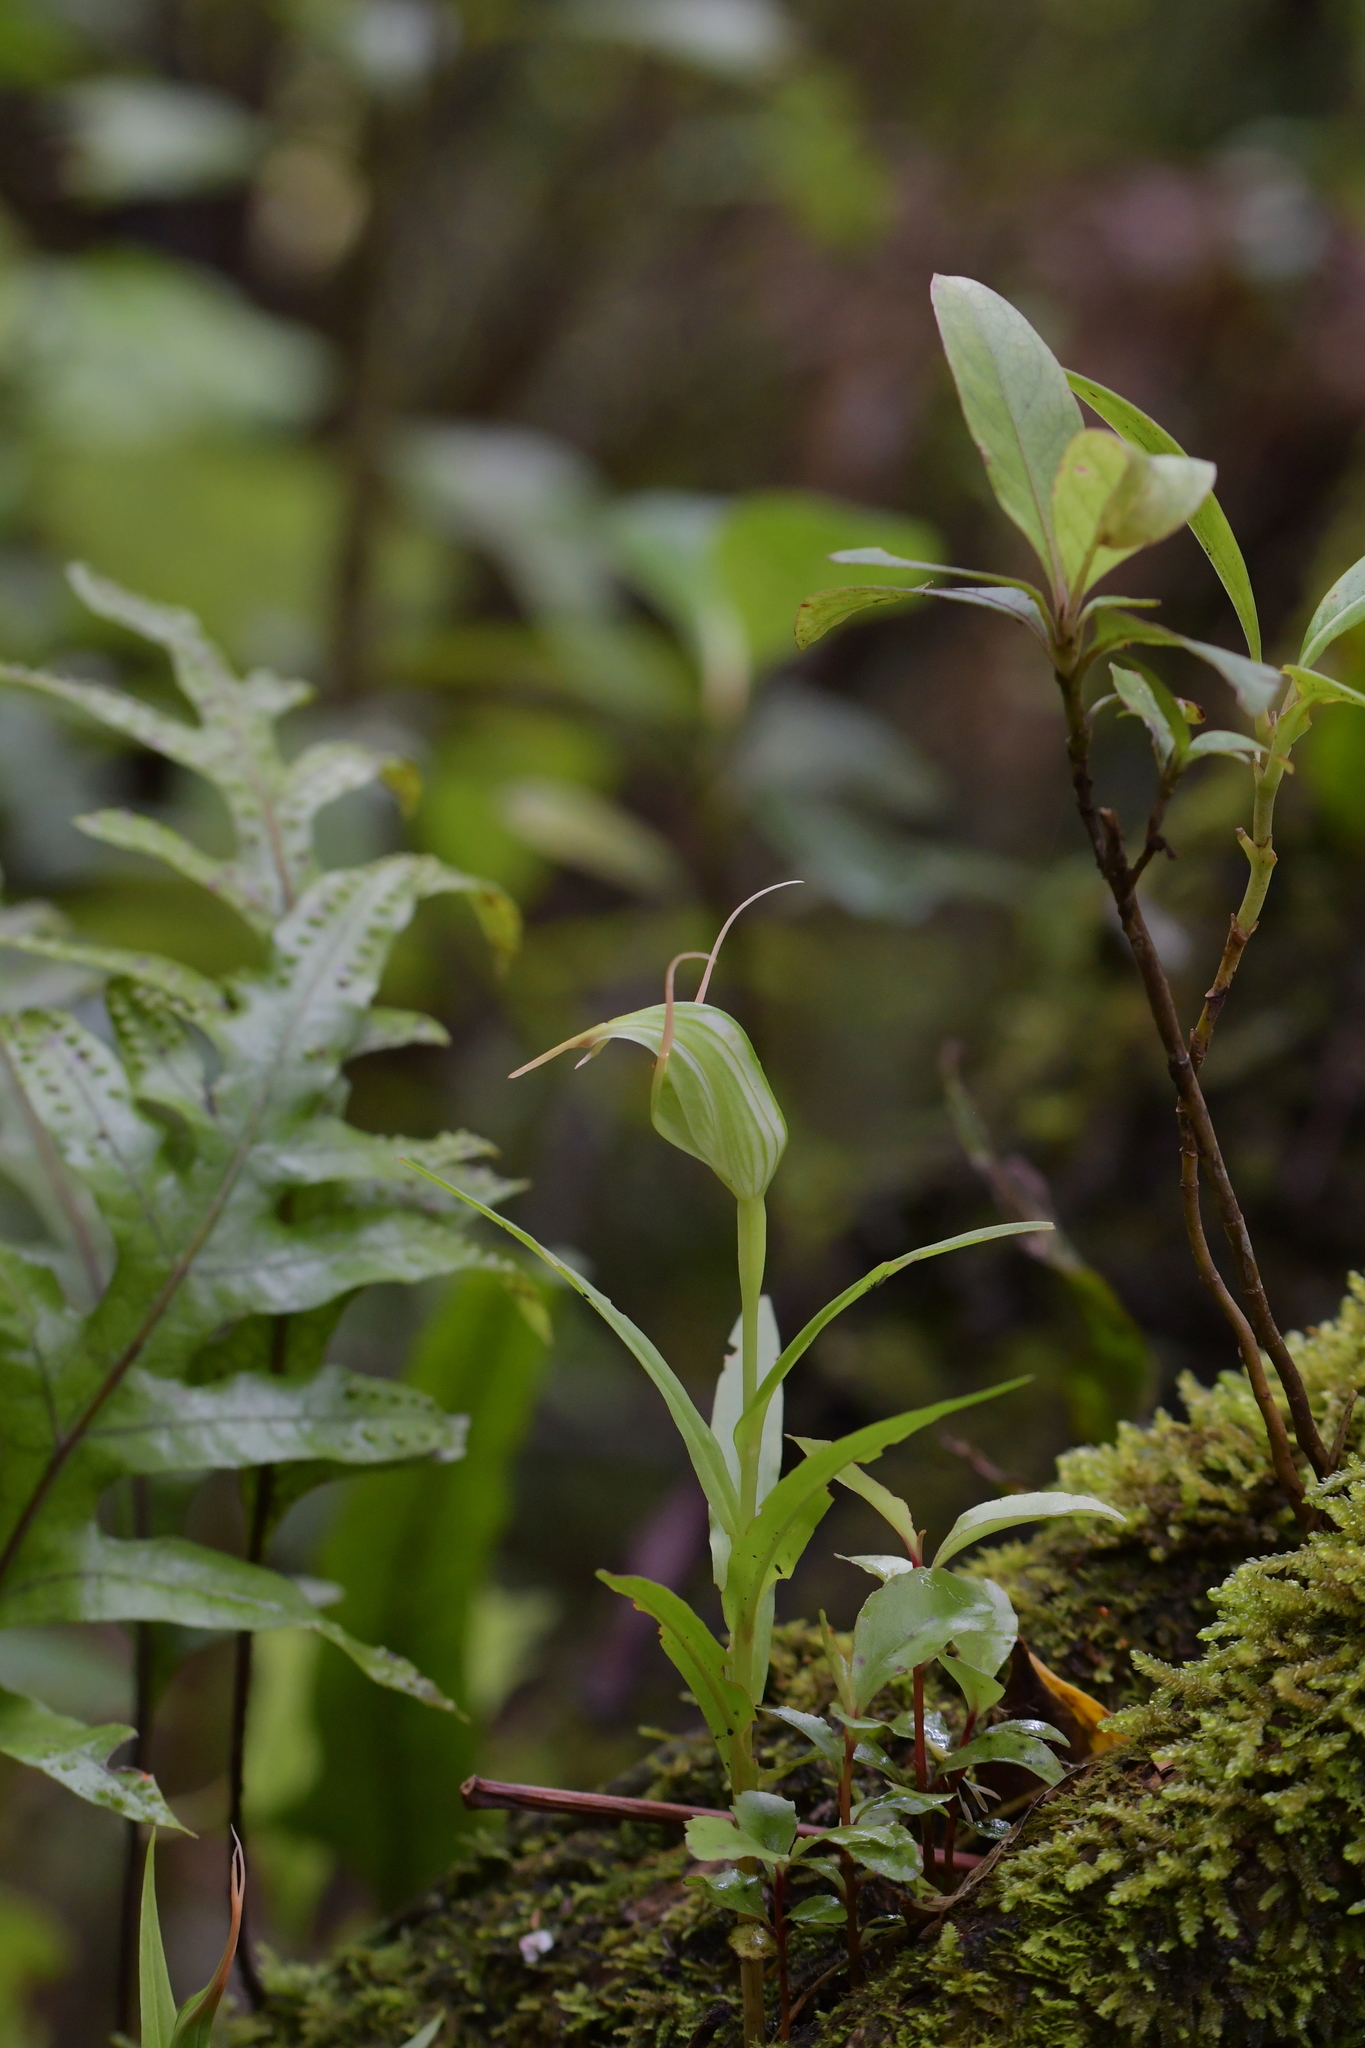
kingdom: Plantae
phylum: Tracheophyta
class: Liliopsida
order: Asparagales
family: Orchidaceae
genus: Pterostylis
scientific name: Pterostylis banksii
